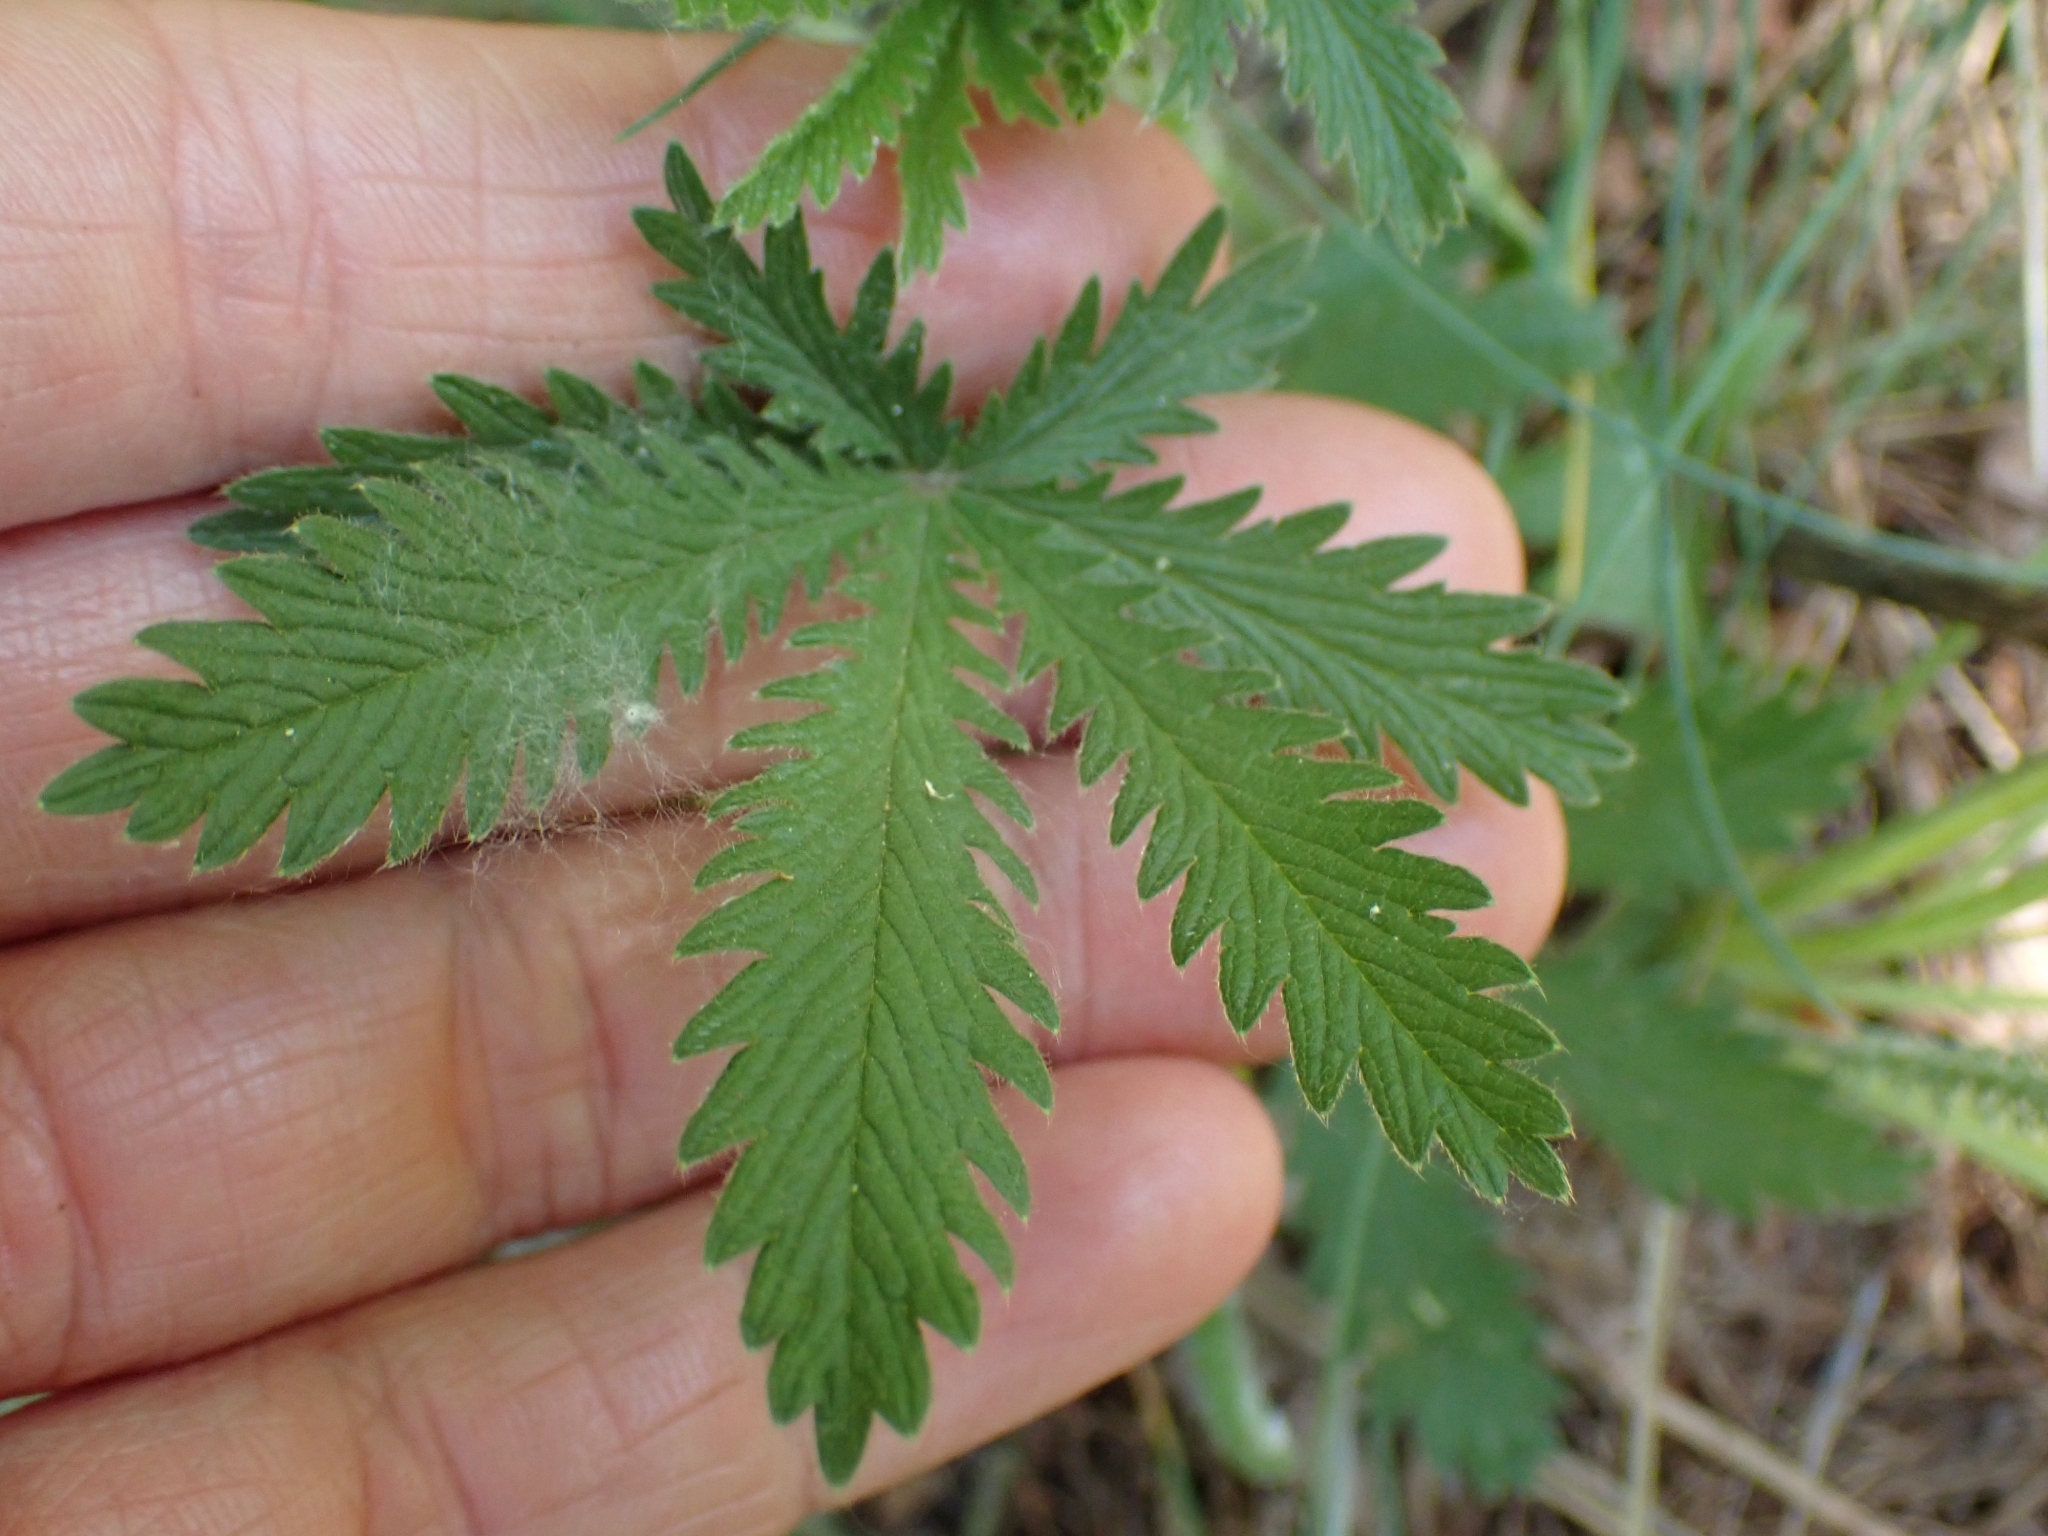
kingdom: Plantae
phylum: Tracheophyta
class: Magnoliopsida
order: Rosales
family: Rosaceae
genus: Potentilla
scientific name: Potentilla recta
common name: Sulphur cinquefoil
